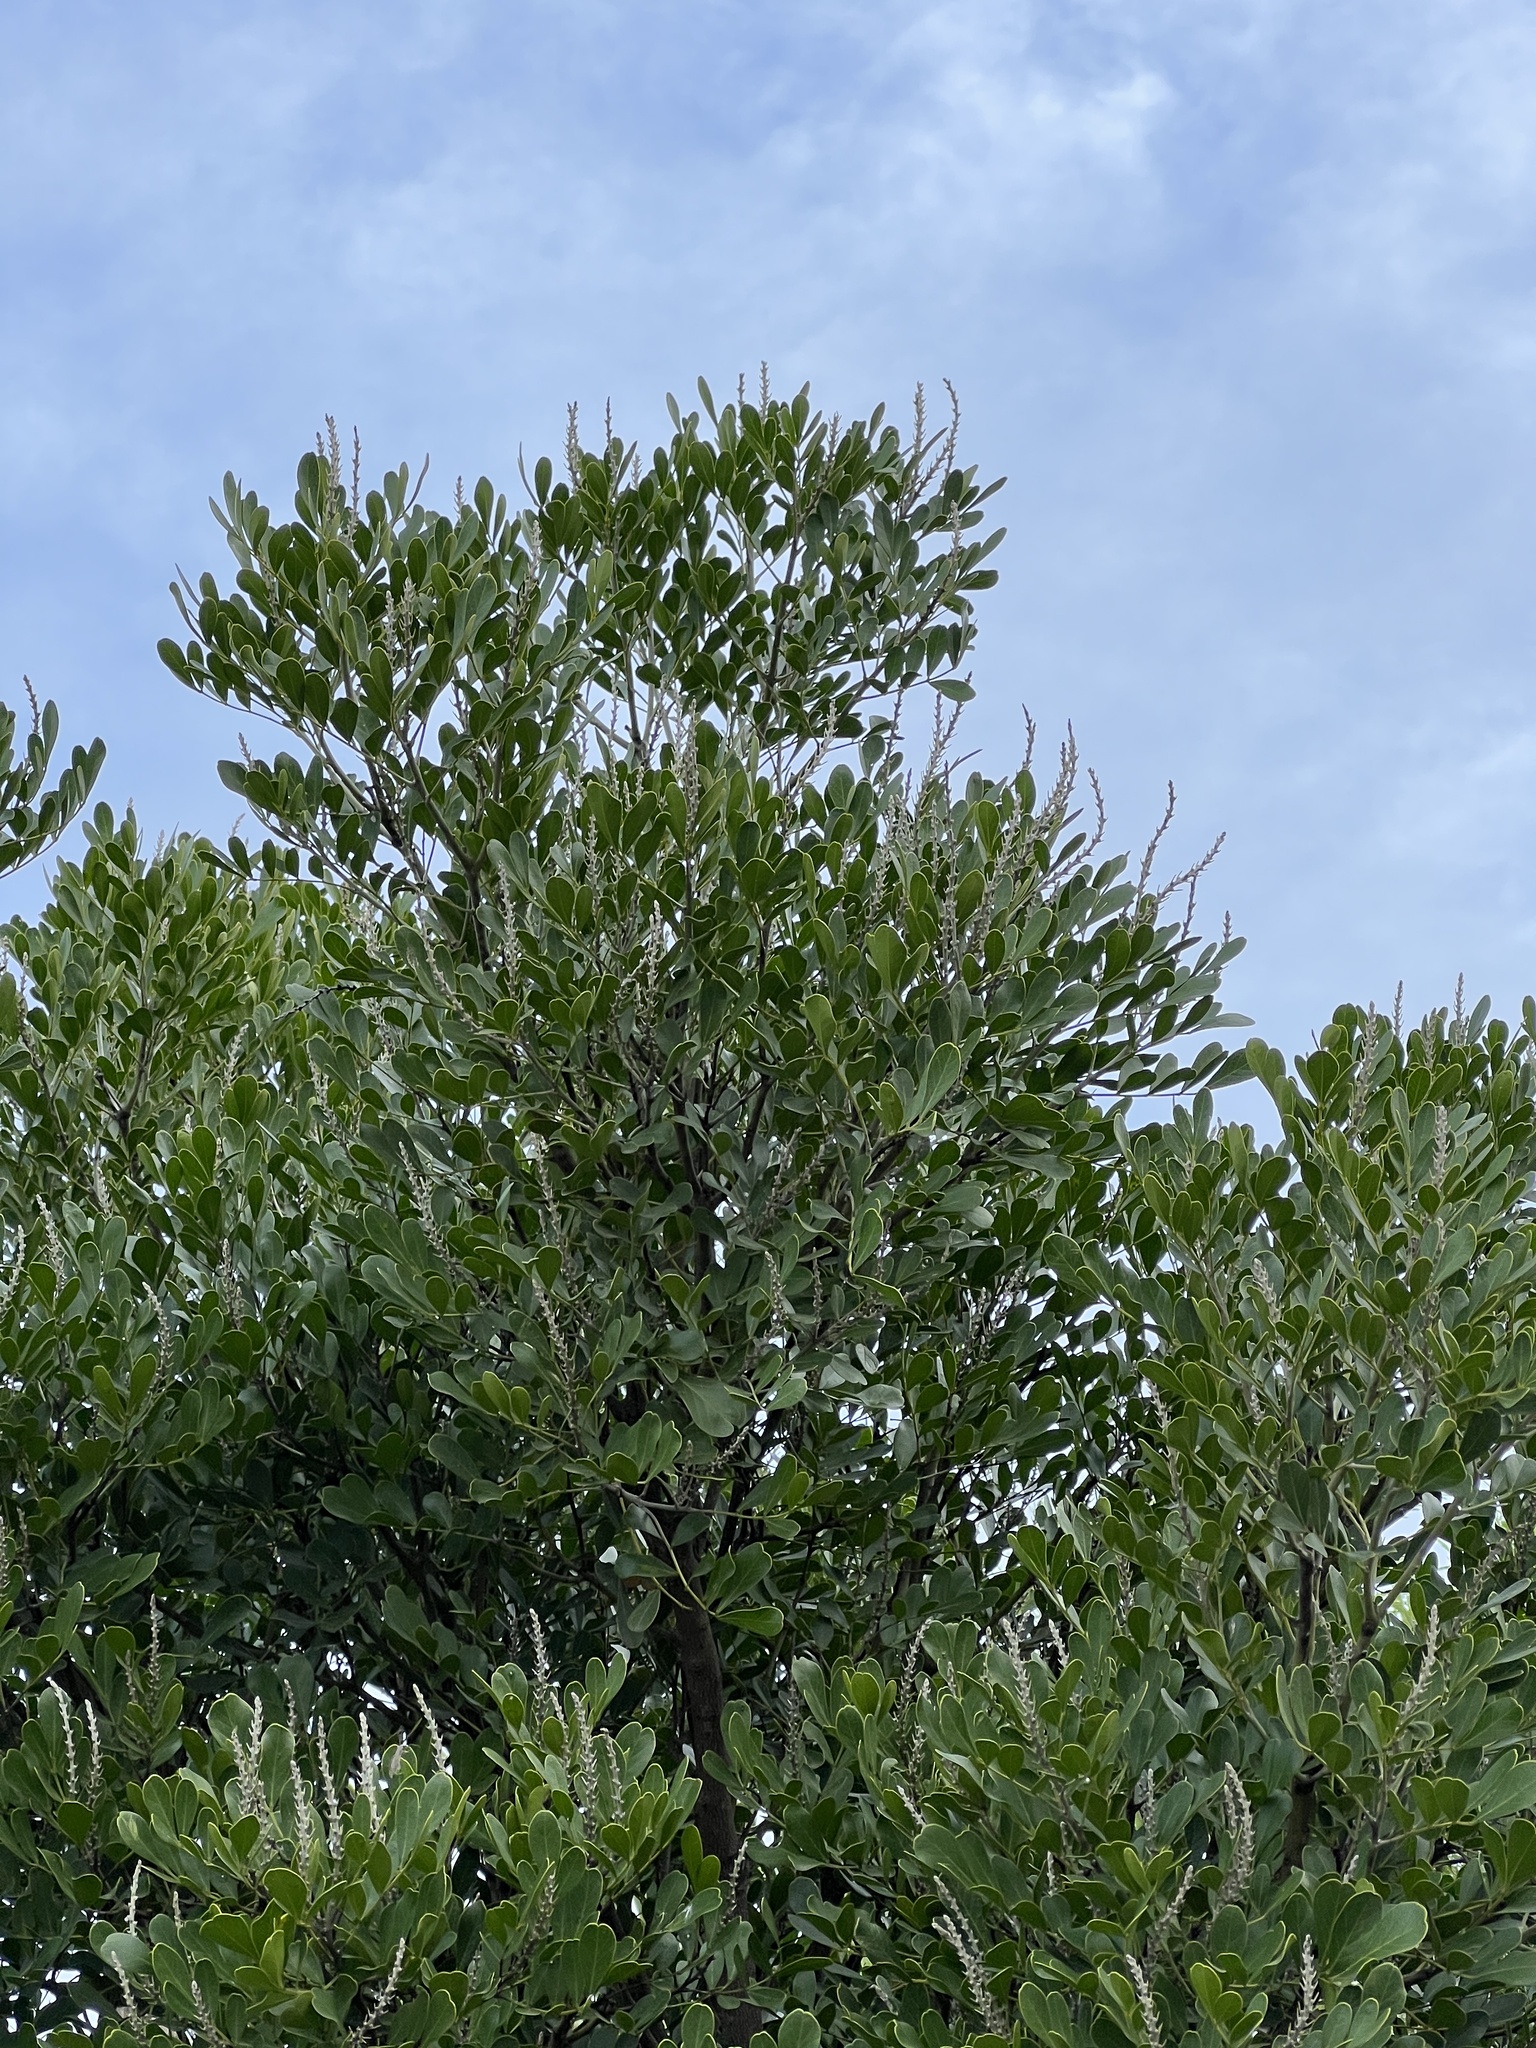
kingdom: Plantae
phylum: Tracheophyta
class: Magnoliopsida
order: Fabales
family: Fabaceae
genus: Dermatophyllum
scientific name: Dermatophyllum secundiflorum
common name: Texas-mountain-laurel
